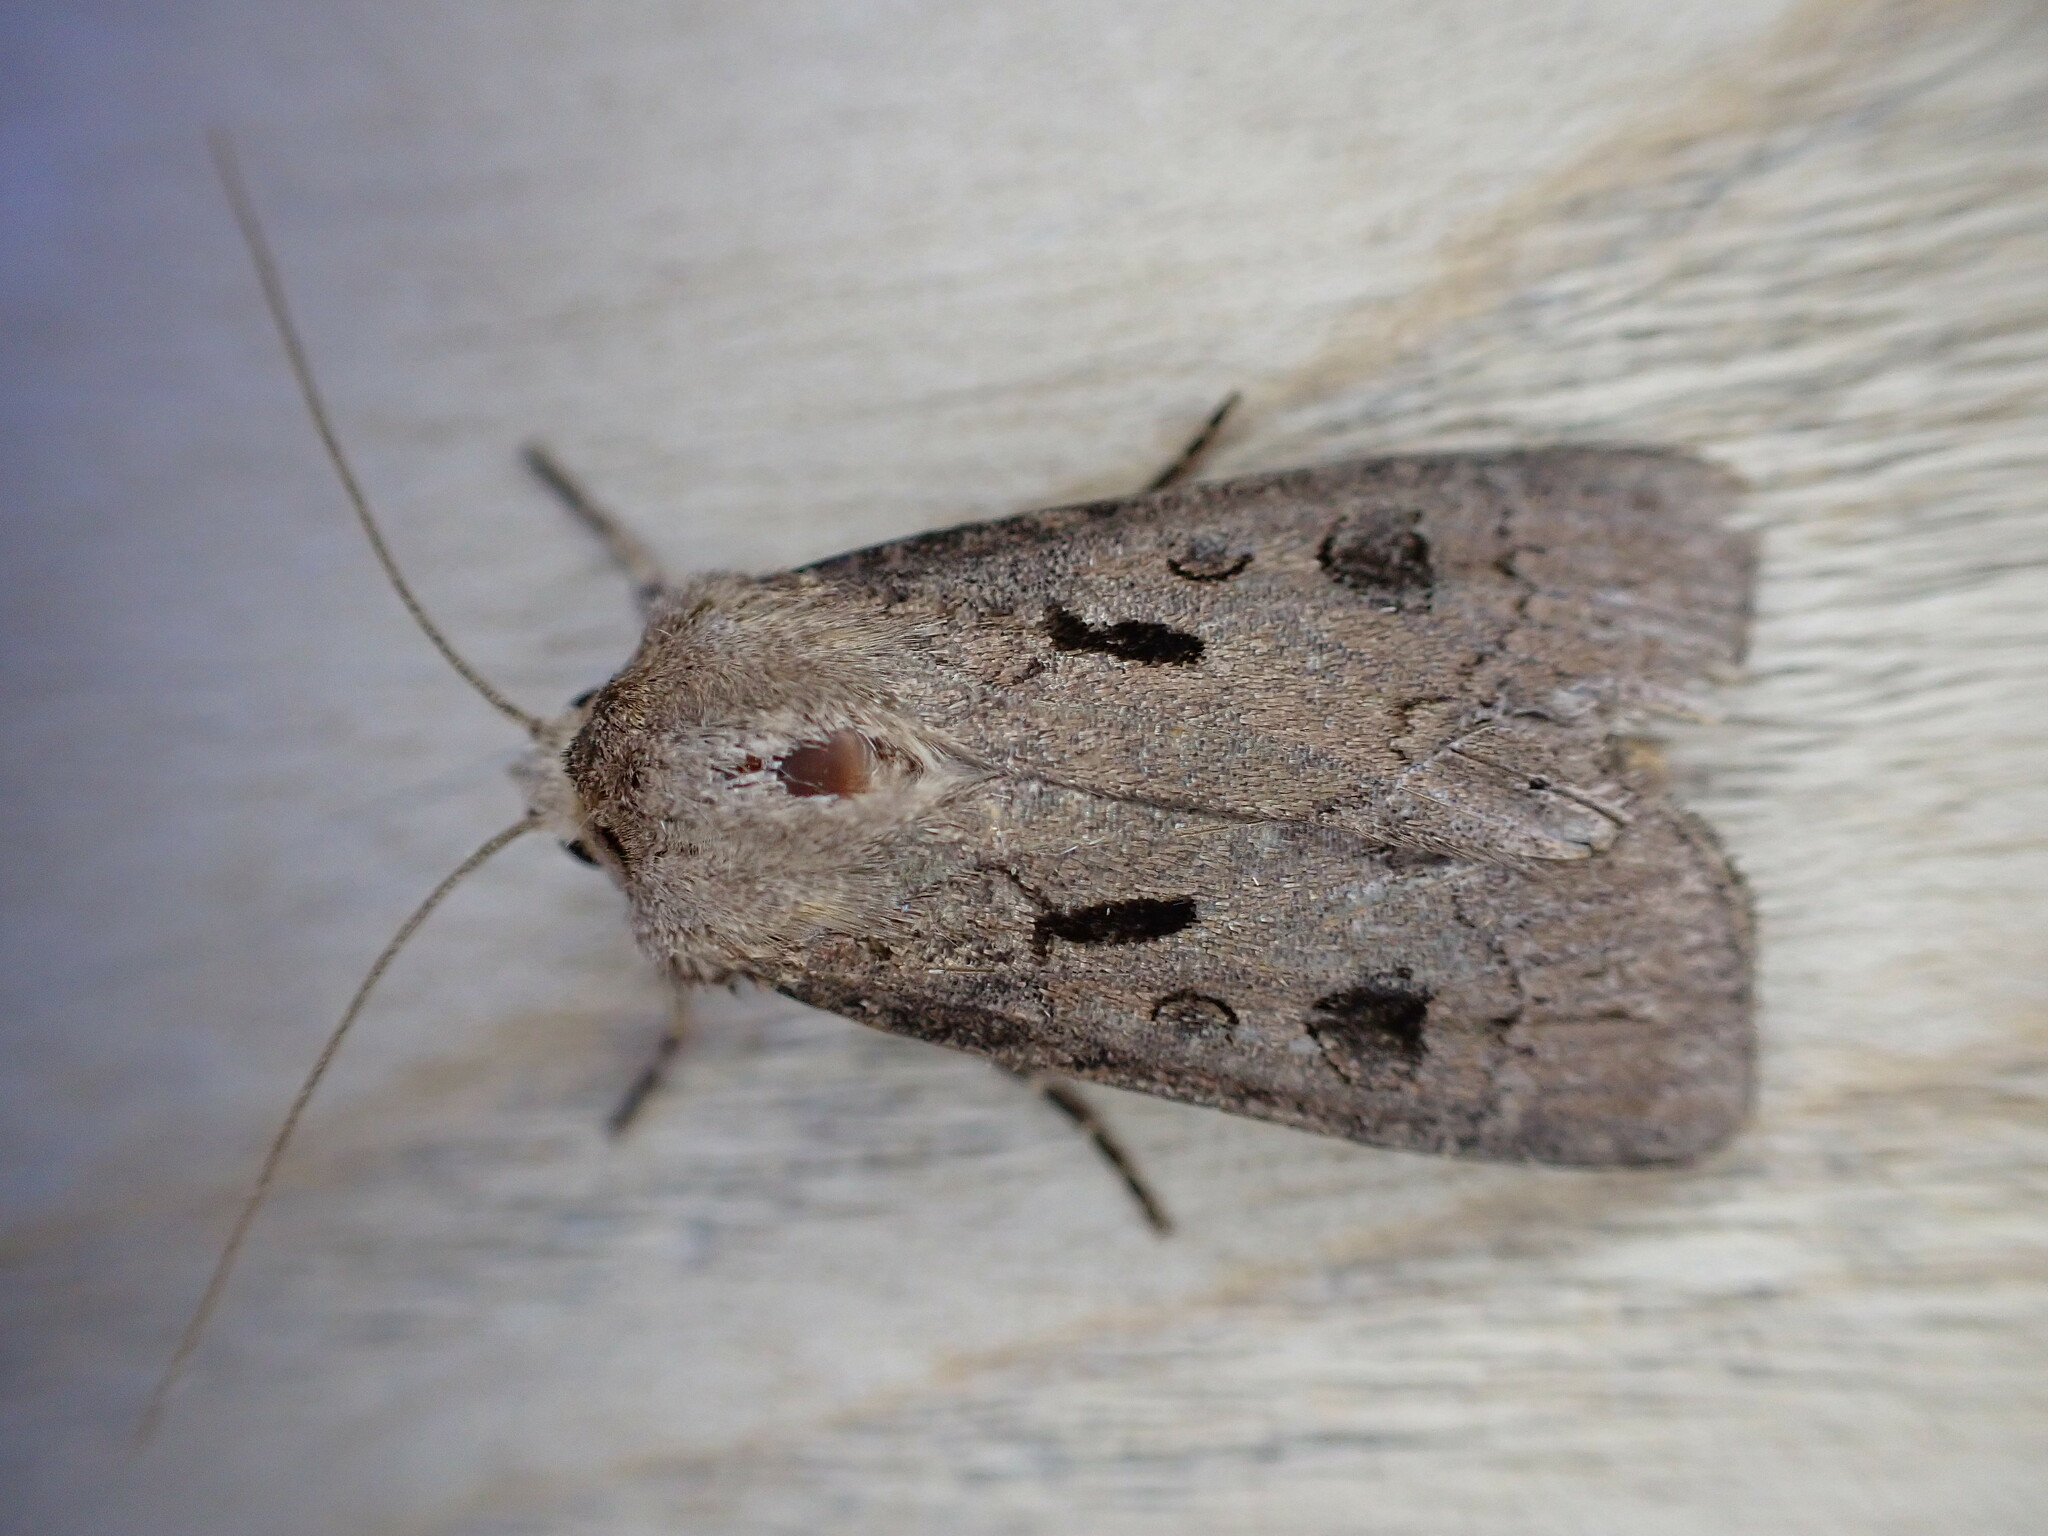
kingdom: Animalia
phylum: Arthropoda
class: Insecta
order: Lepidoptera
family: Noctuidae
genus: Agrotis
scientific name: Agrotis exclamationis
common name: Heart and dart
